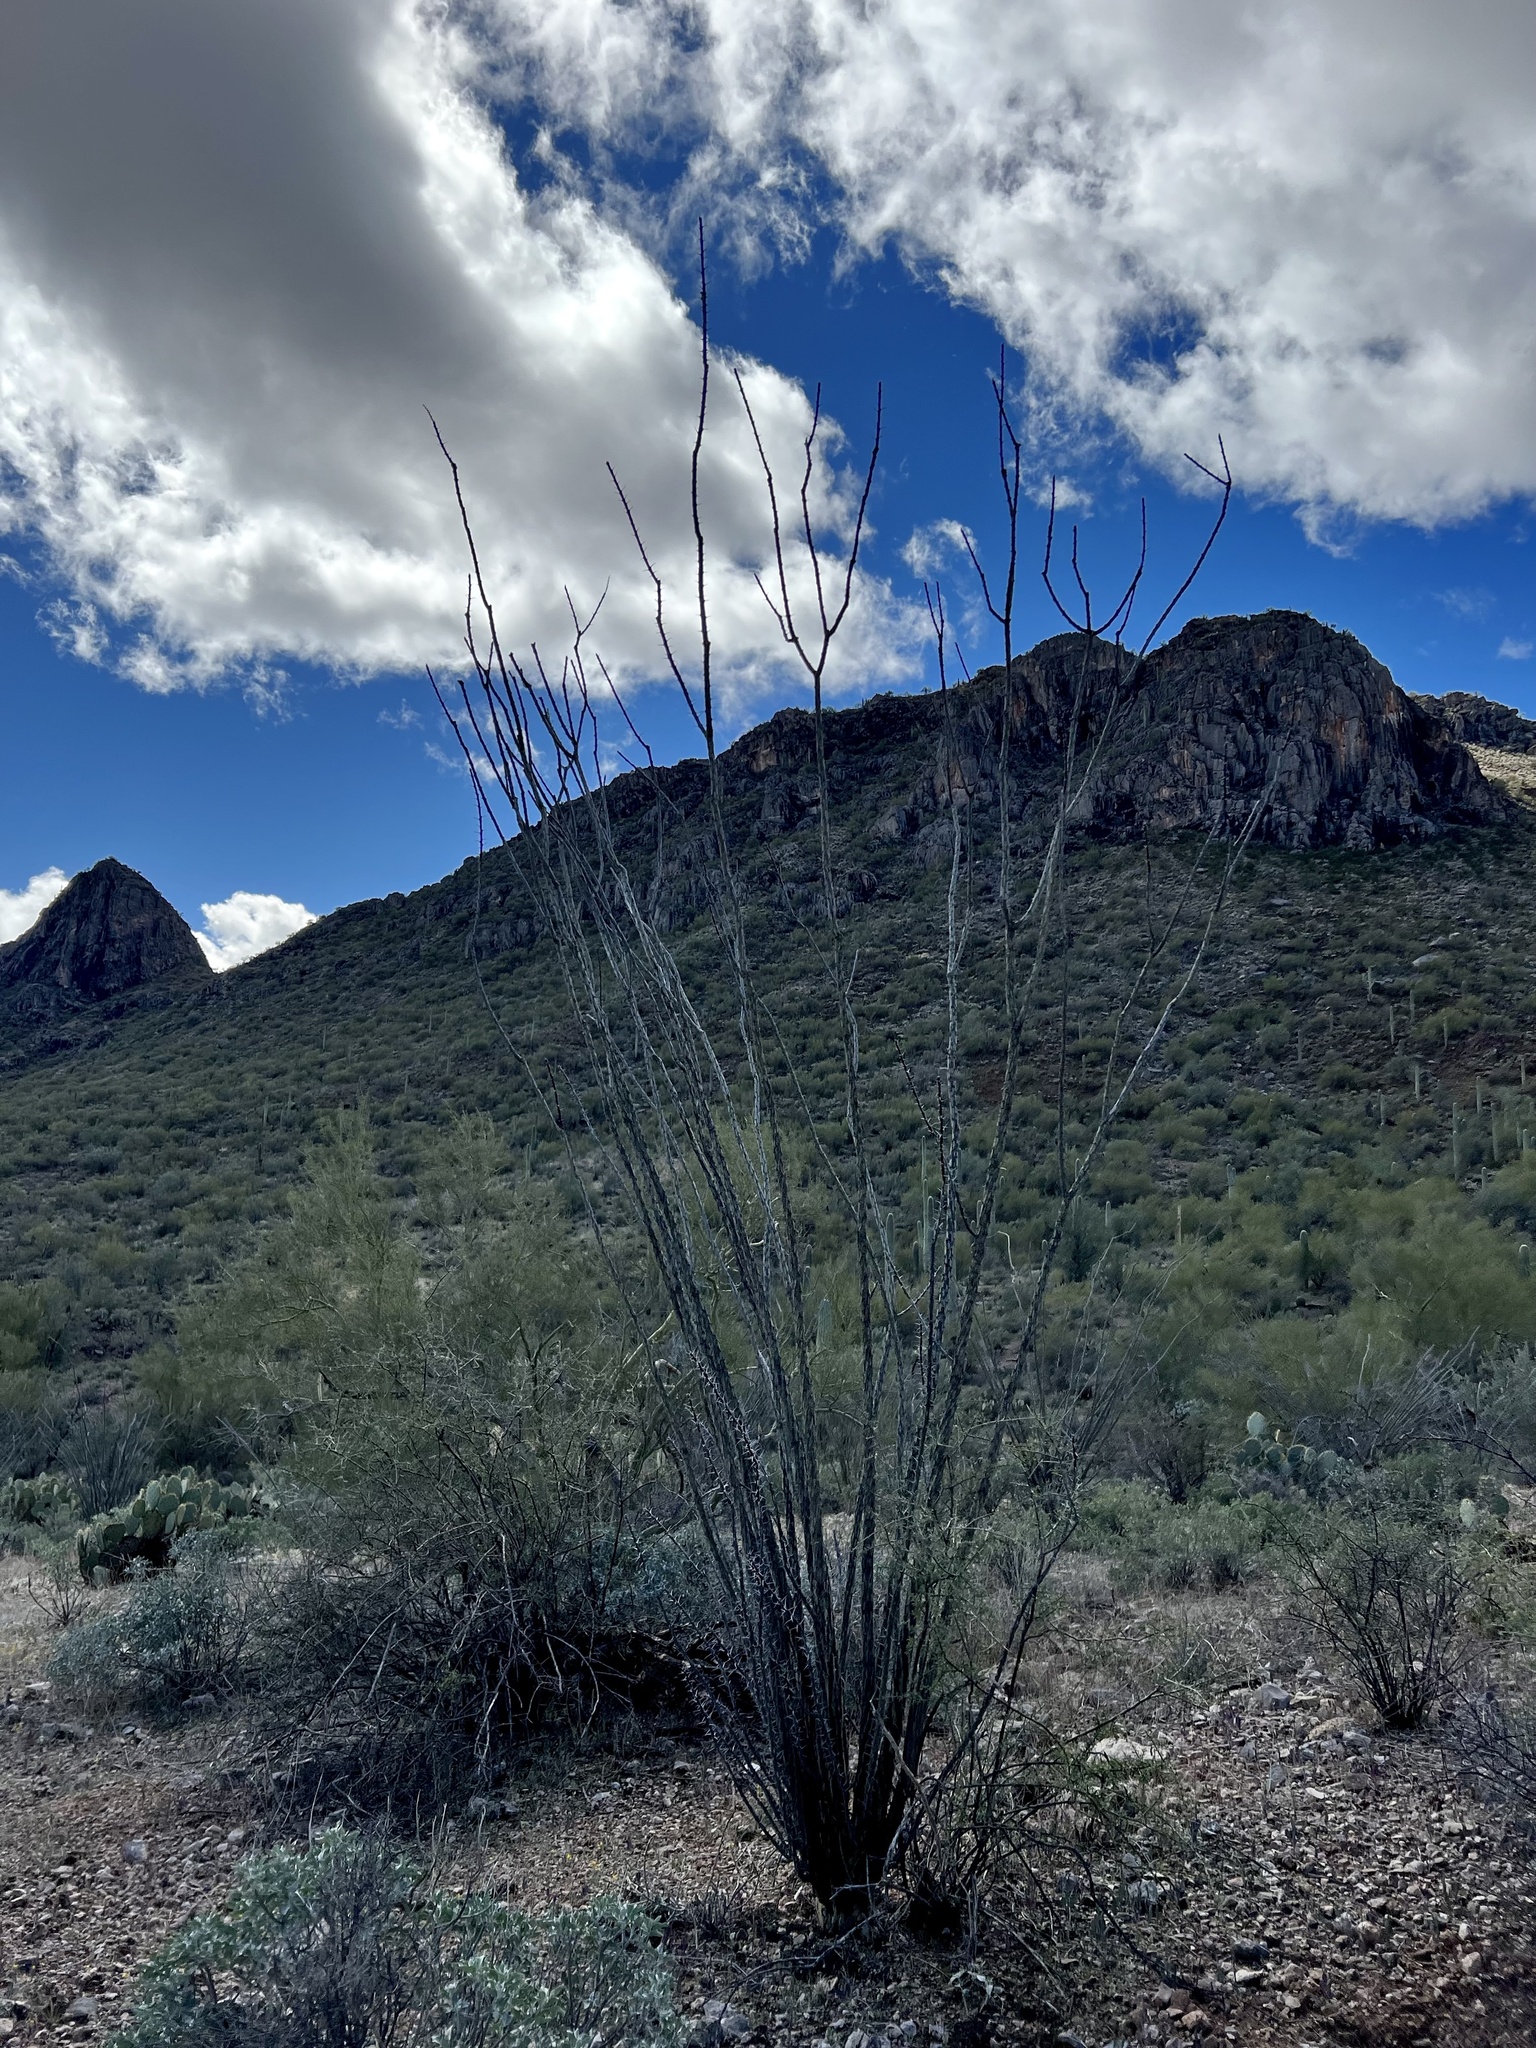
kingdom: Plantae
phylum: Tracheophyta
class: Magnoliopsida
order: Ericales
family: Fouquieriaceae
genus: Fouquieria
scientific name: Fouquieria splendens
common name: Vine-cactus
